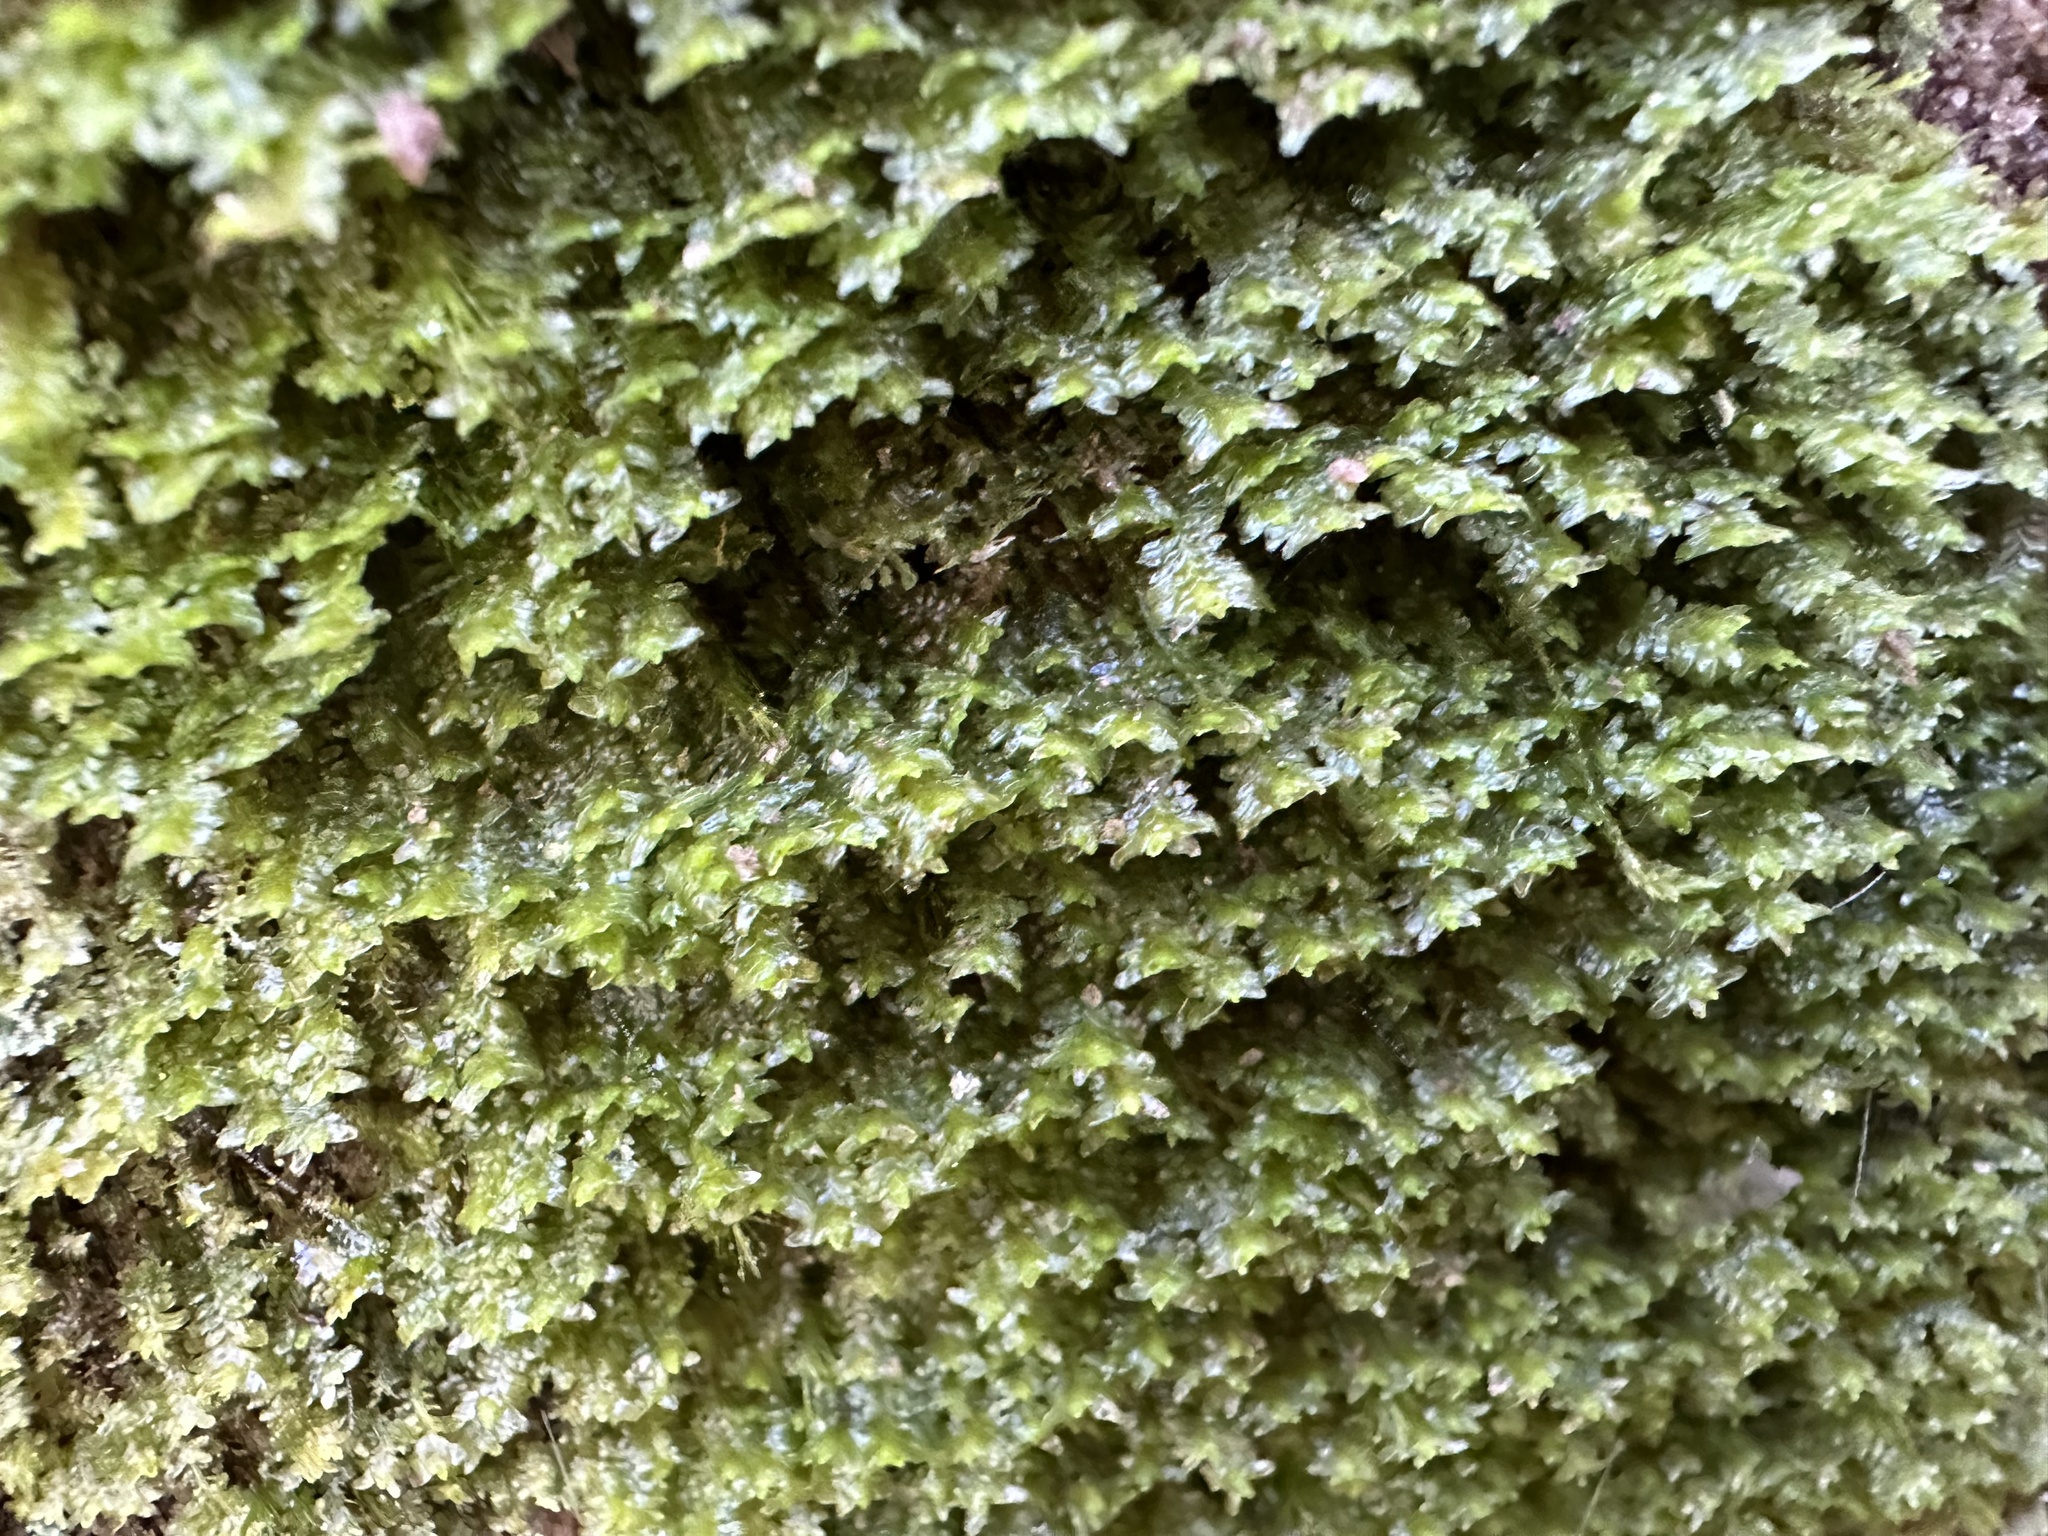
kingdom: Plantae
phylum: Marchantiophyta
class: Jungermanniopsida
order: Jungermanniales
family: Scapaniaceae
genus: Diplophyllum
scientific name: Diplophyllum albicans
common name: White earwort
